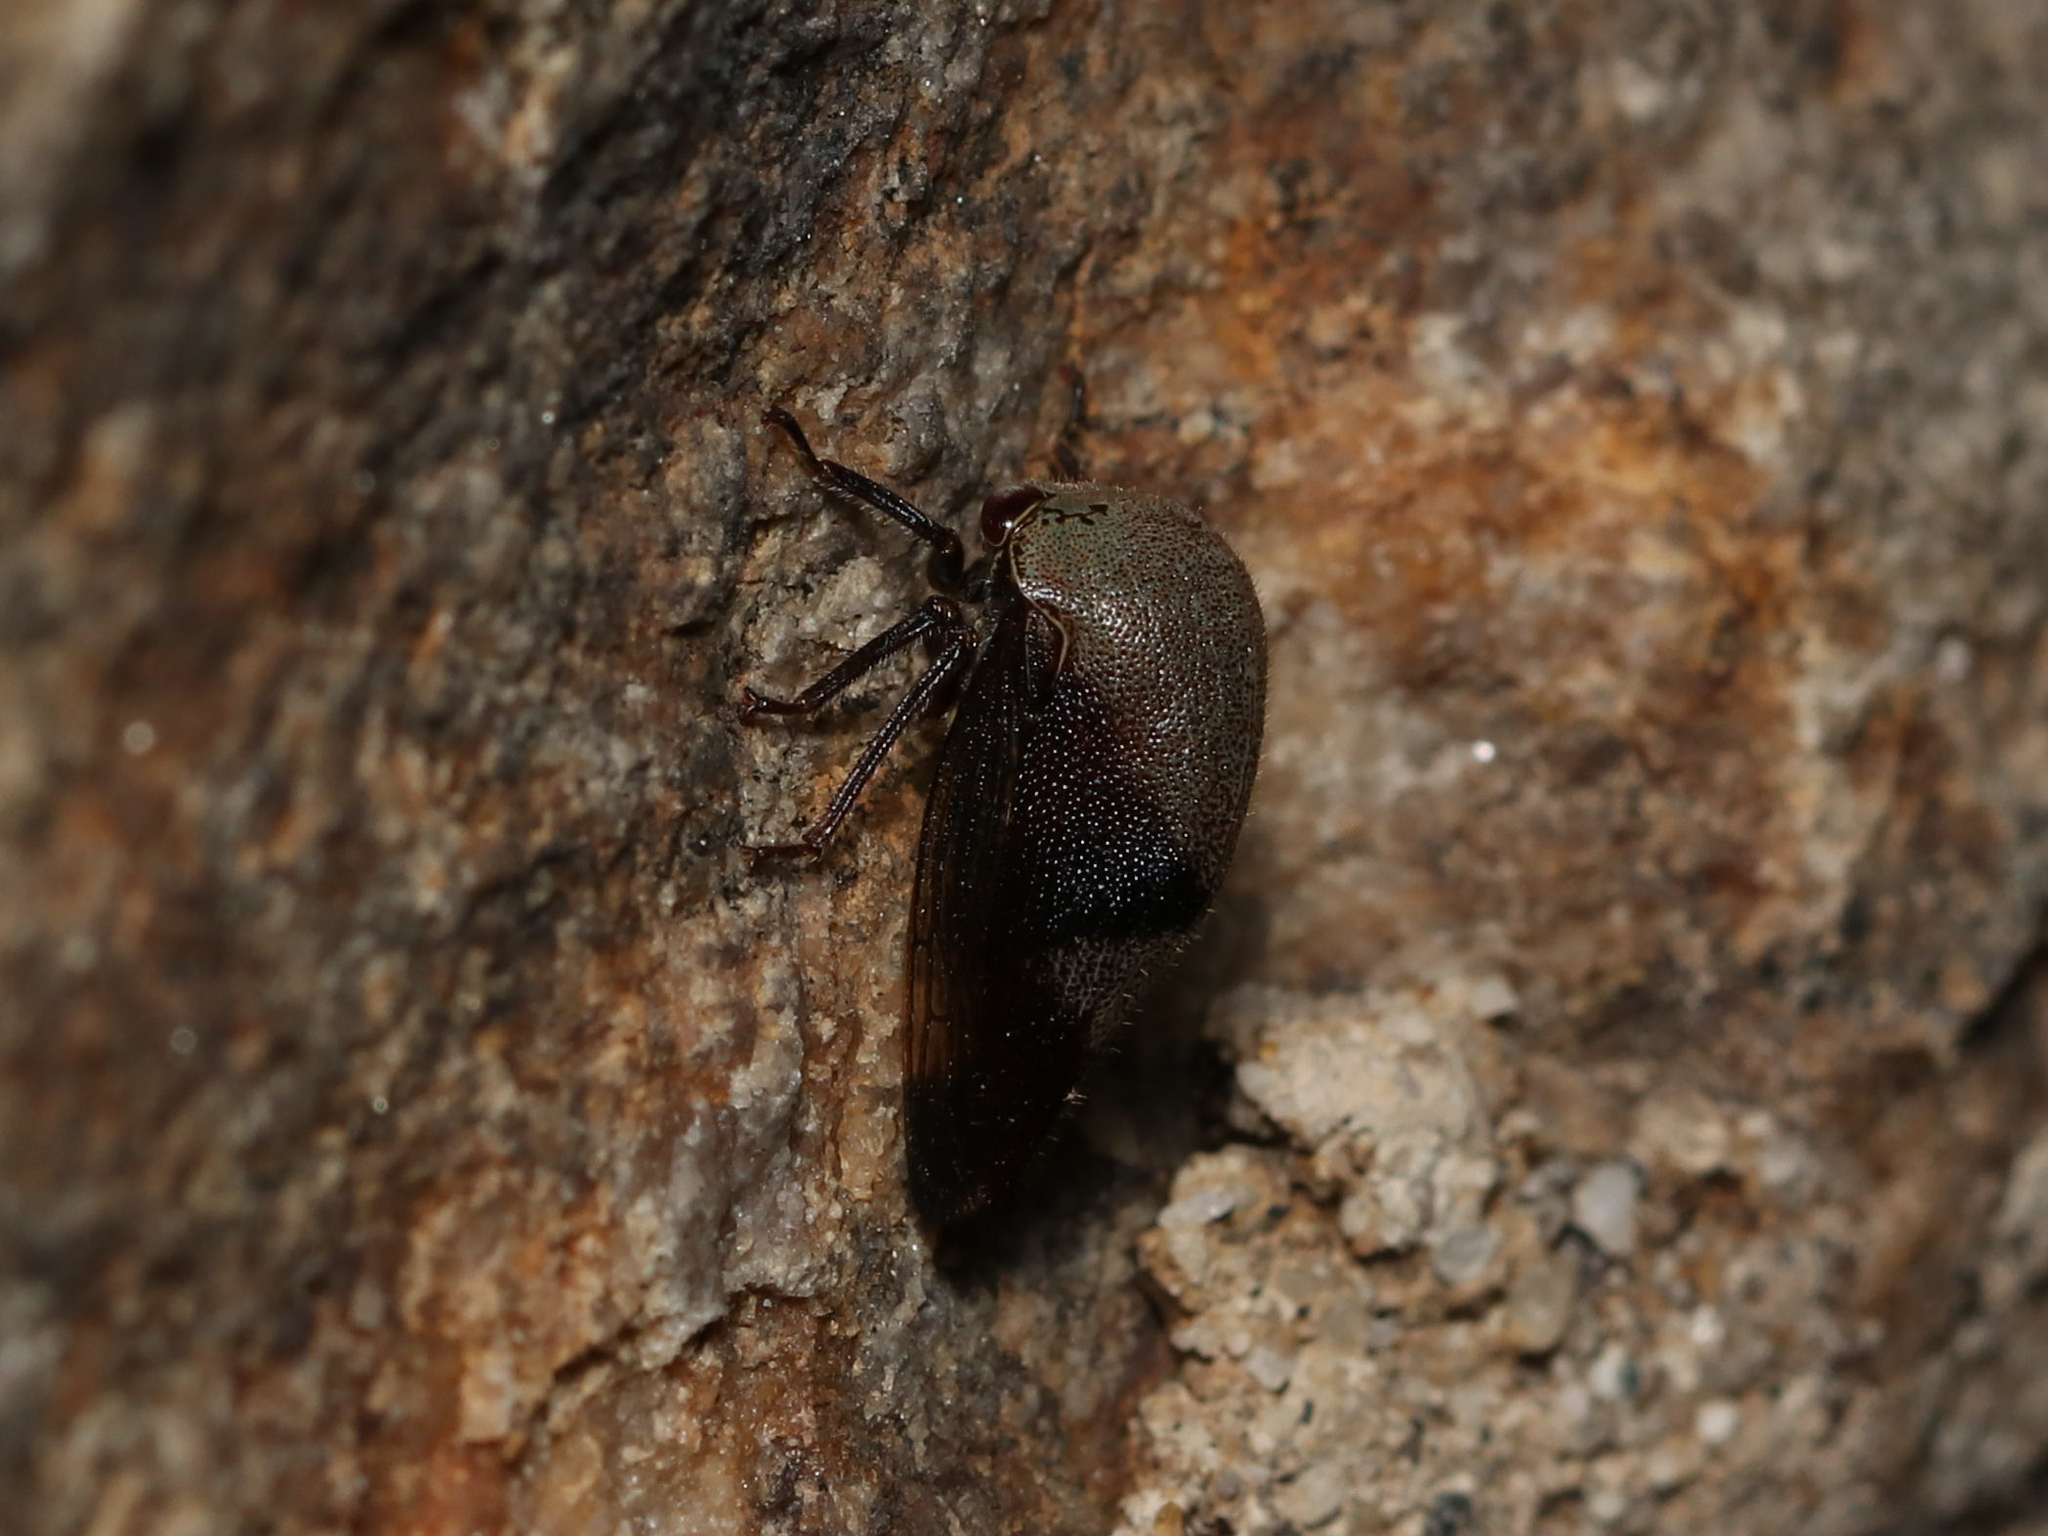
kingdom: Animalia
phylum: Arthropoda
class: Insecta
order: Hemiptera
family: Membracidae
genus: Carynota
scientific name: Carynota mera
